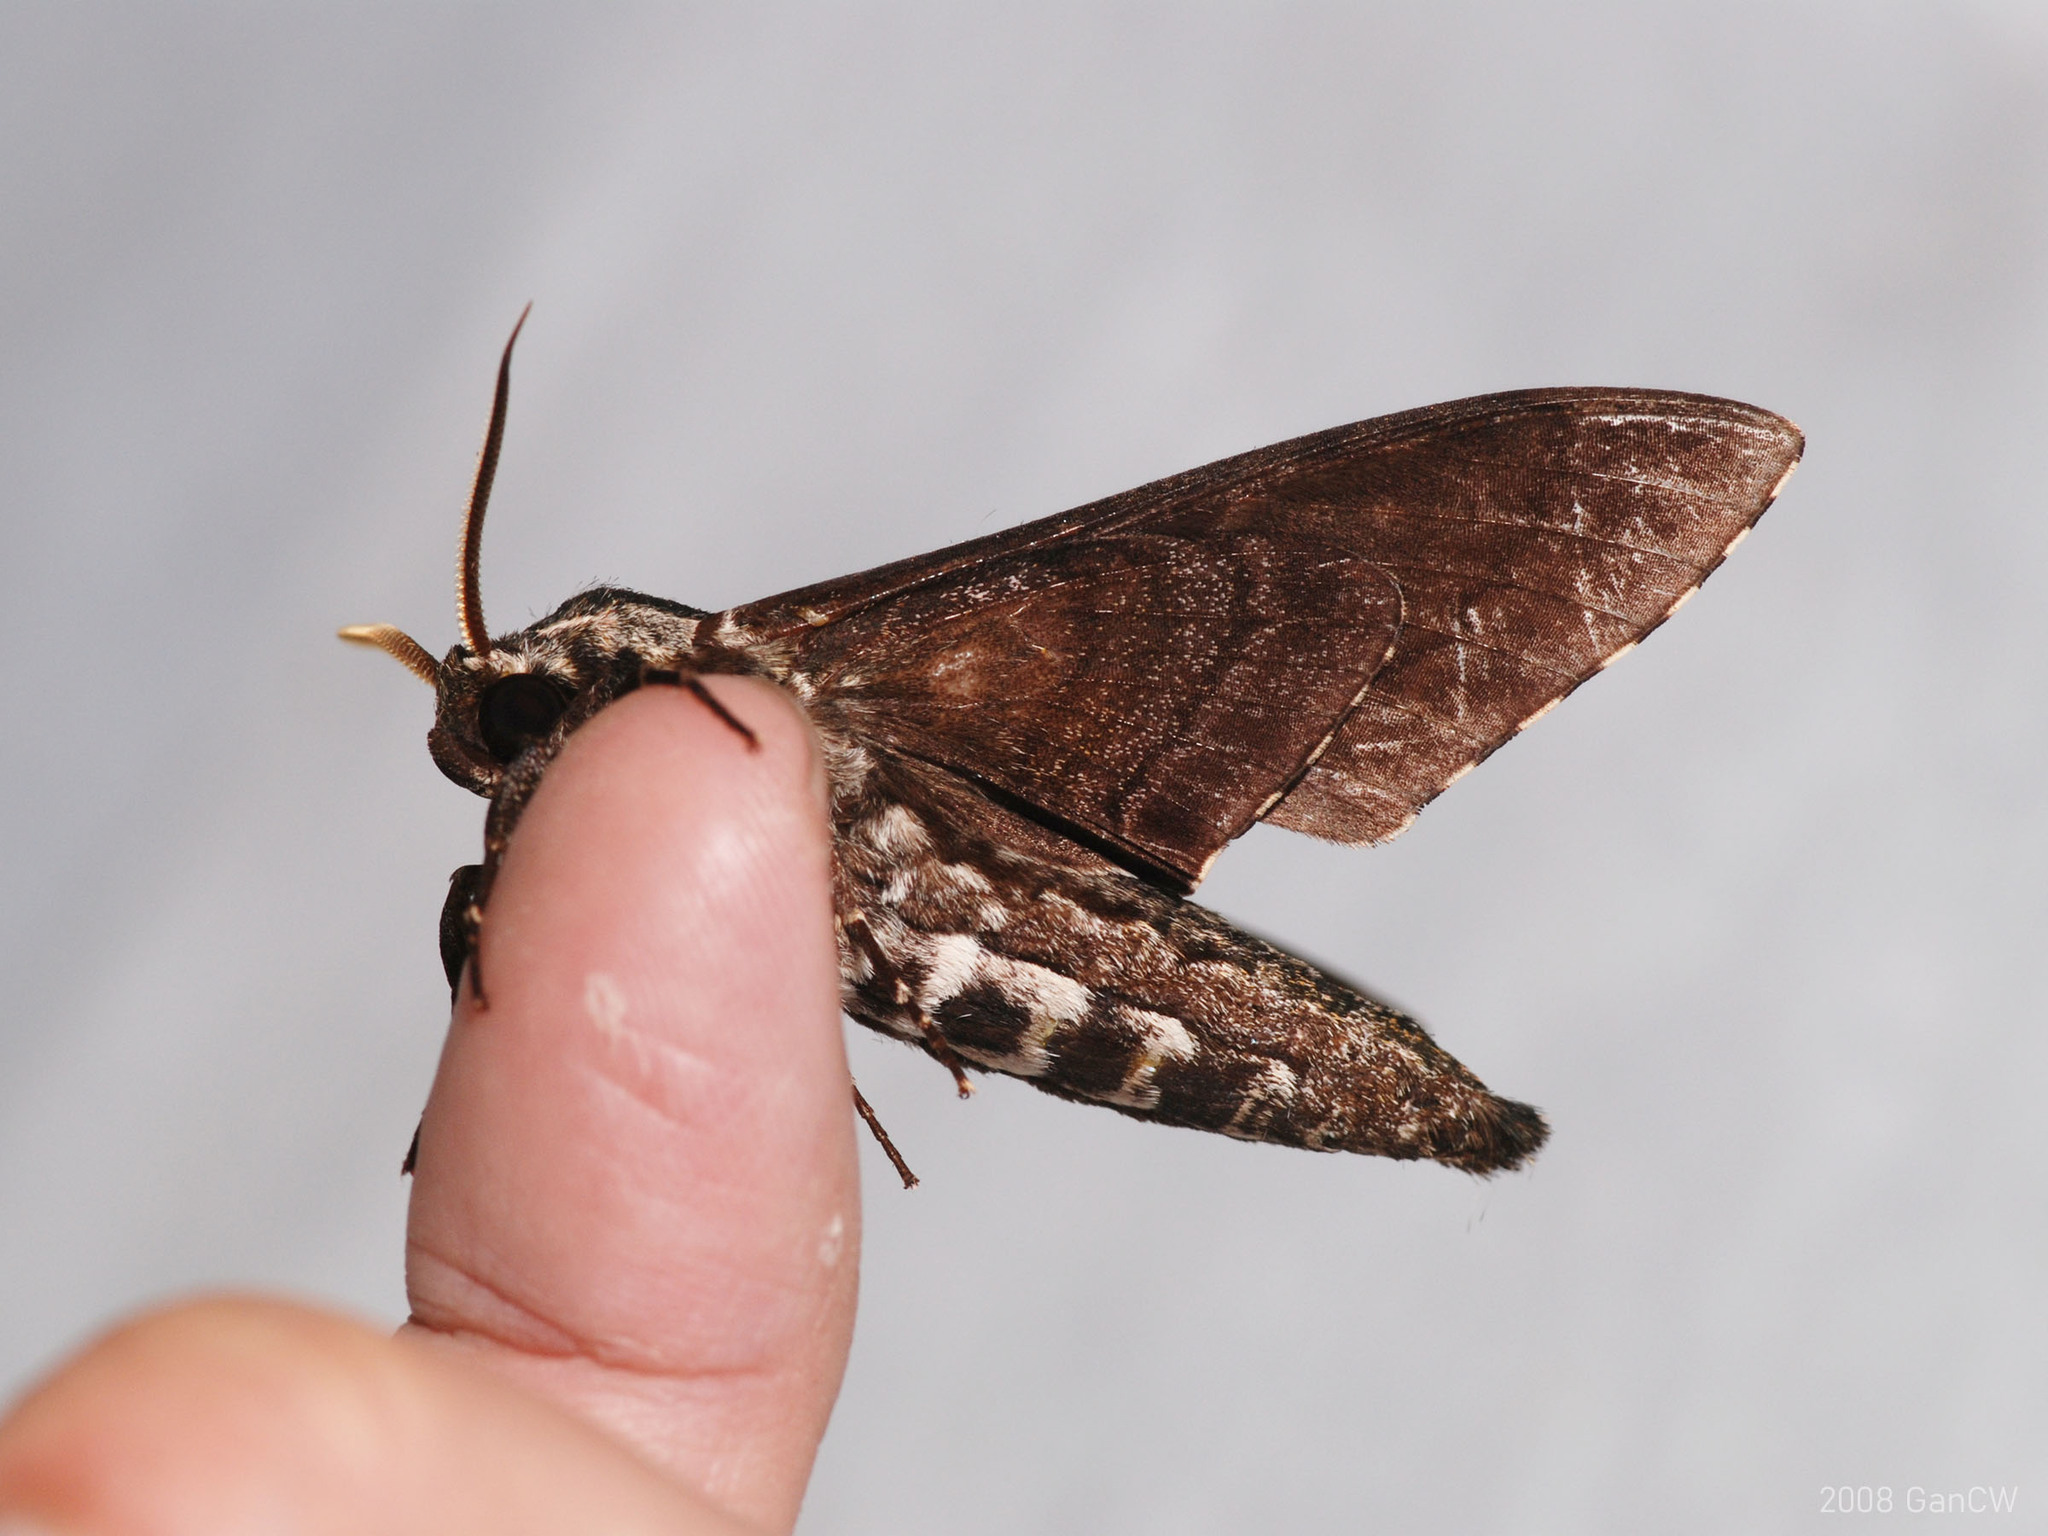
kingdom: Animalia
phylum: Arthropoda
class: Insecta
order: Lepidoptera
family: Sphingidae
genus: Dolbina
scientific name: Dolbina krikkeni
